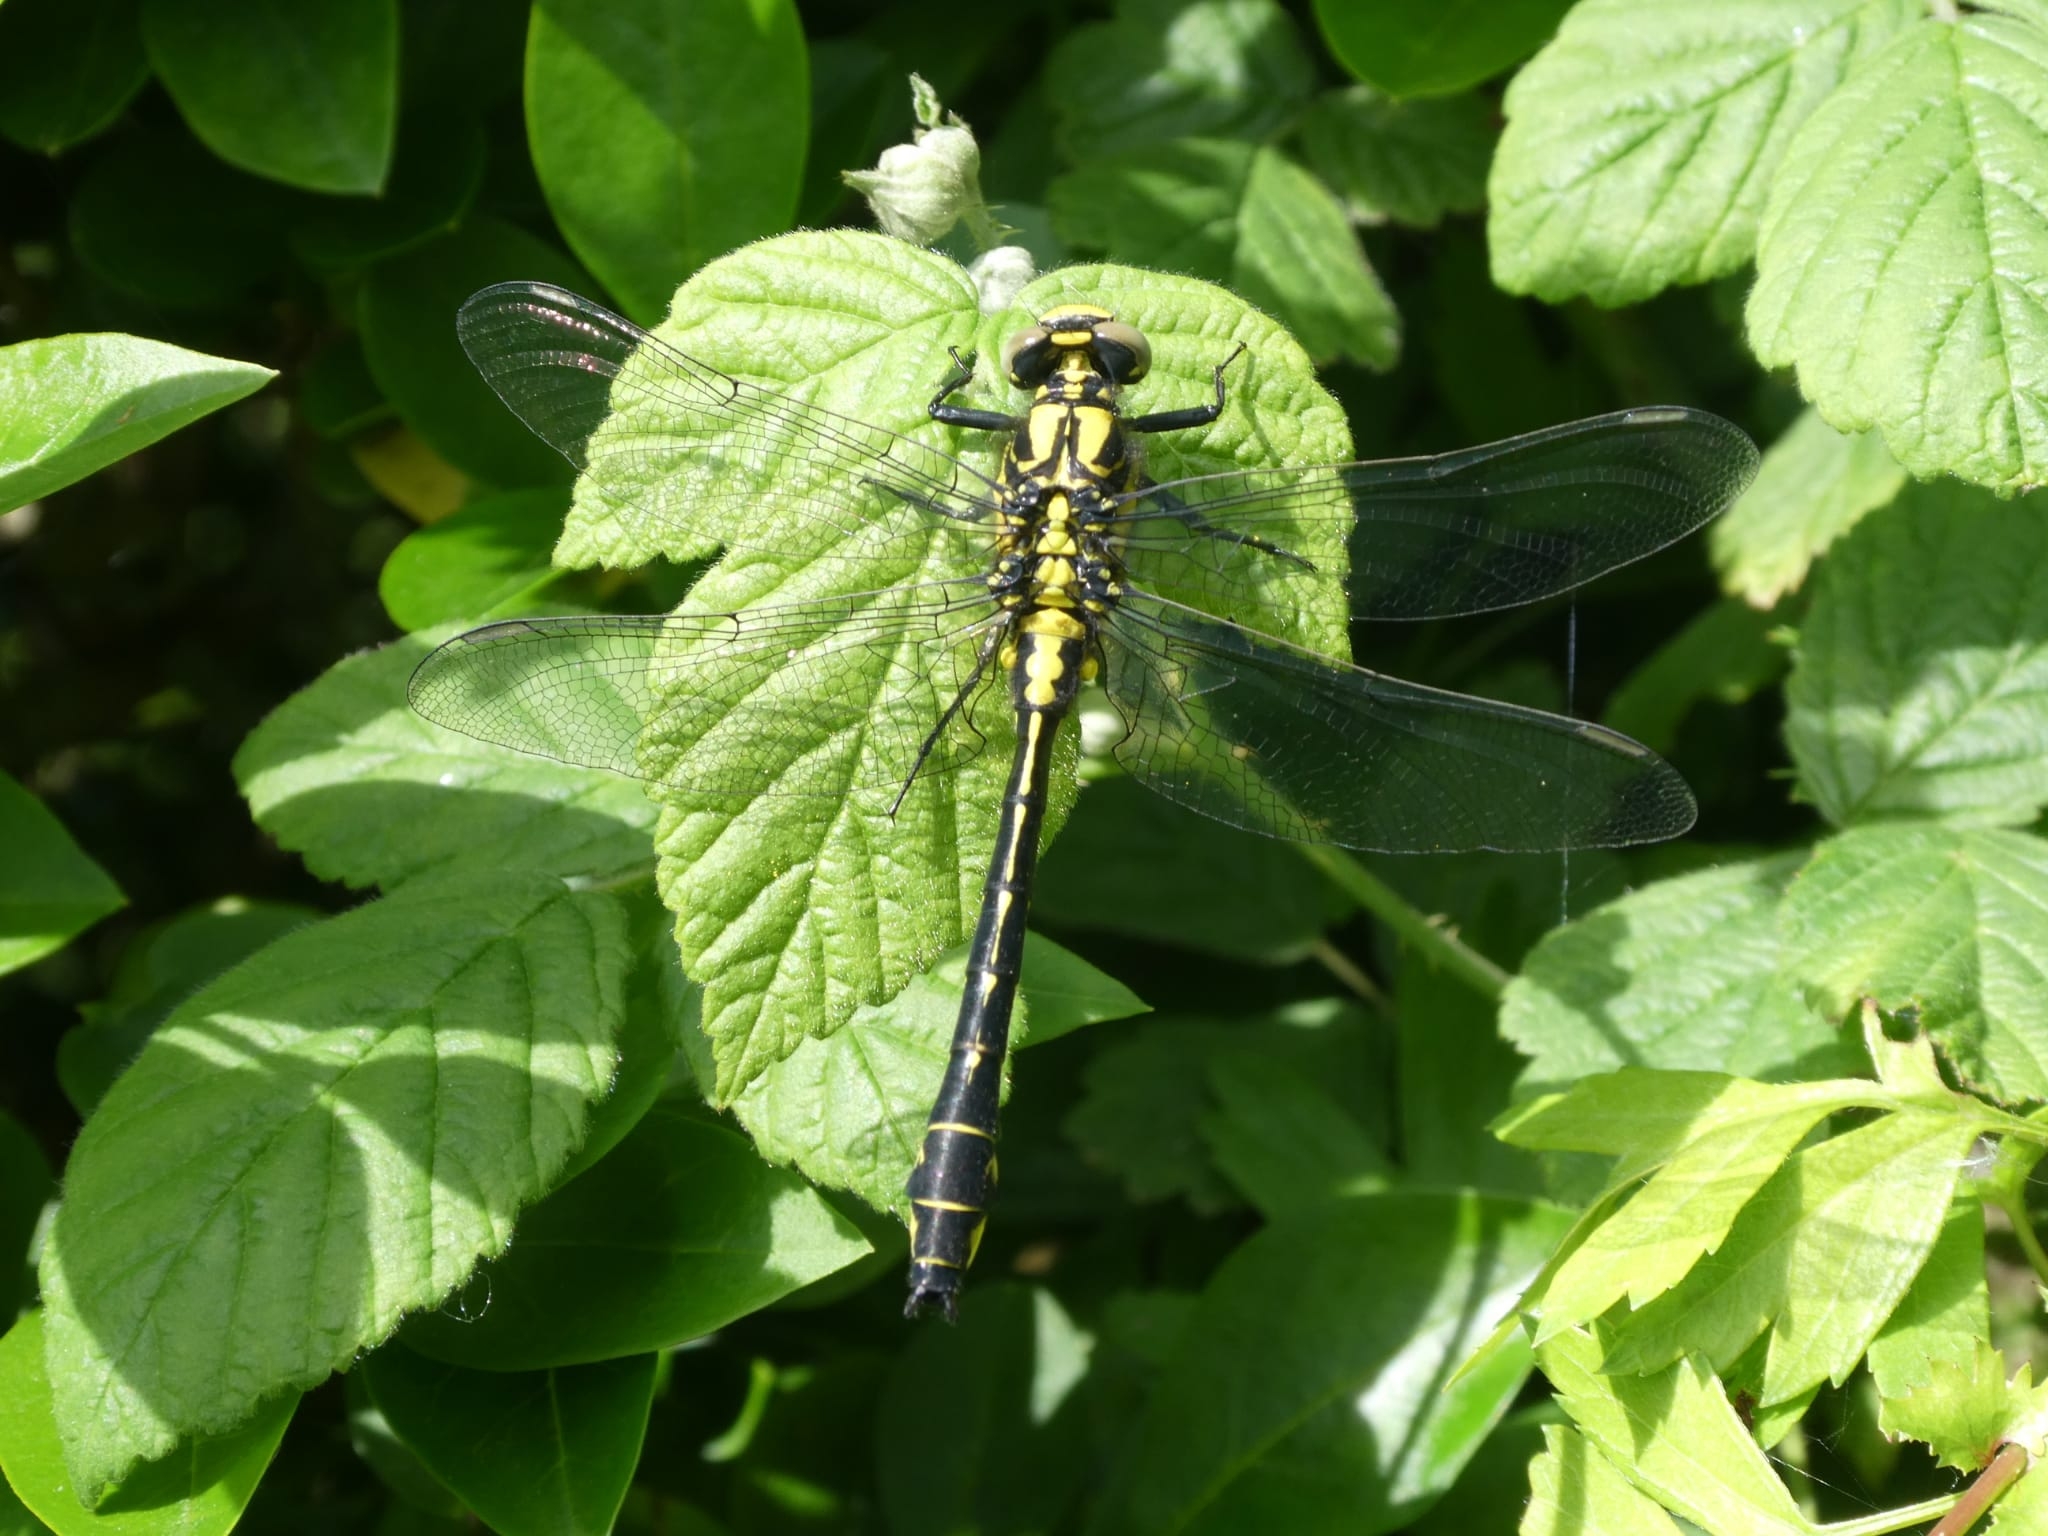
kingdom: Animalia
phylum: Arthropoda
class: Insecta
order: Odonata
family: Gomphidae
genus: Gomphus
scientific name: Gomphus vulgatissimus
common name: Club-tailed dragonfly
